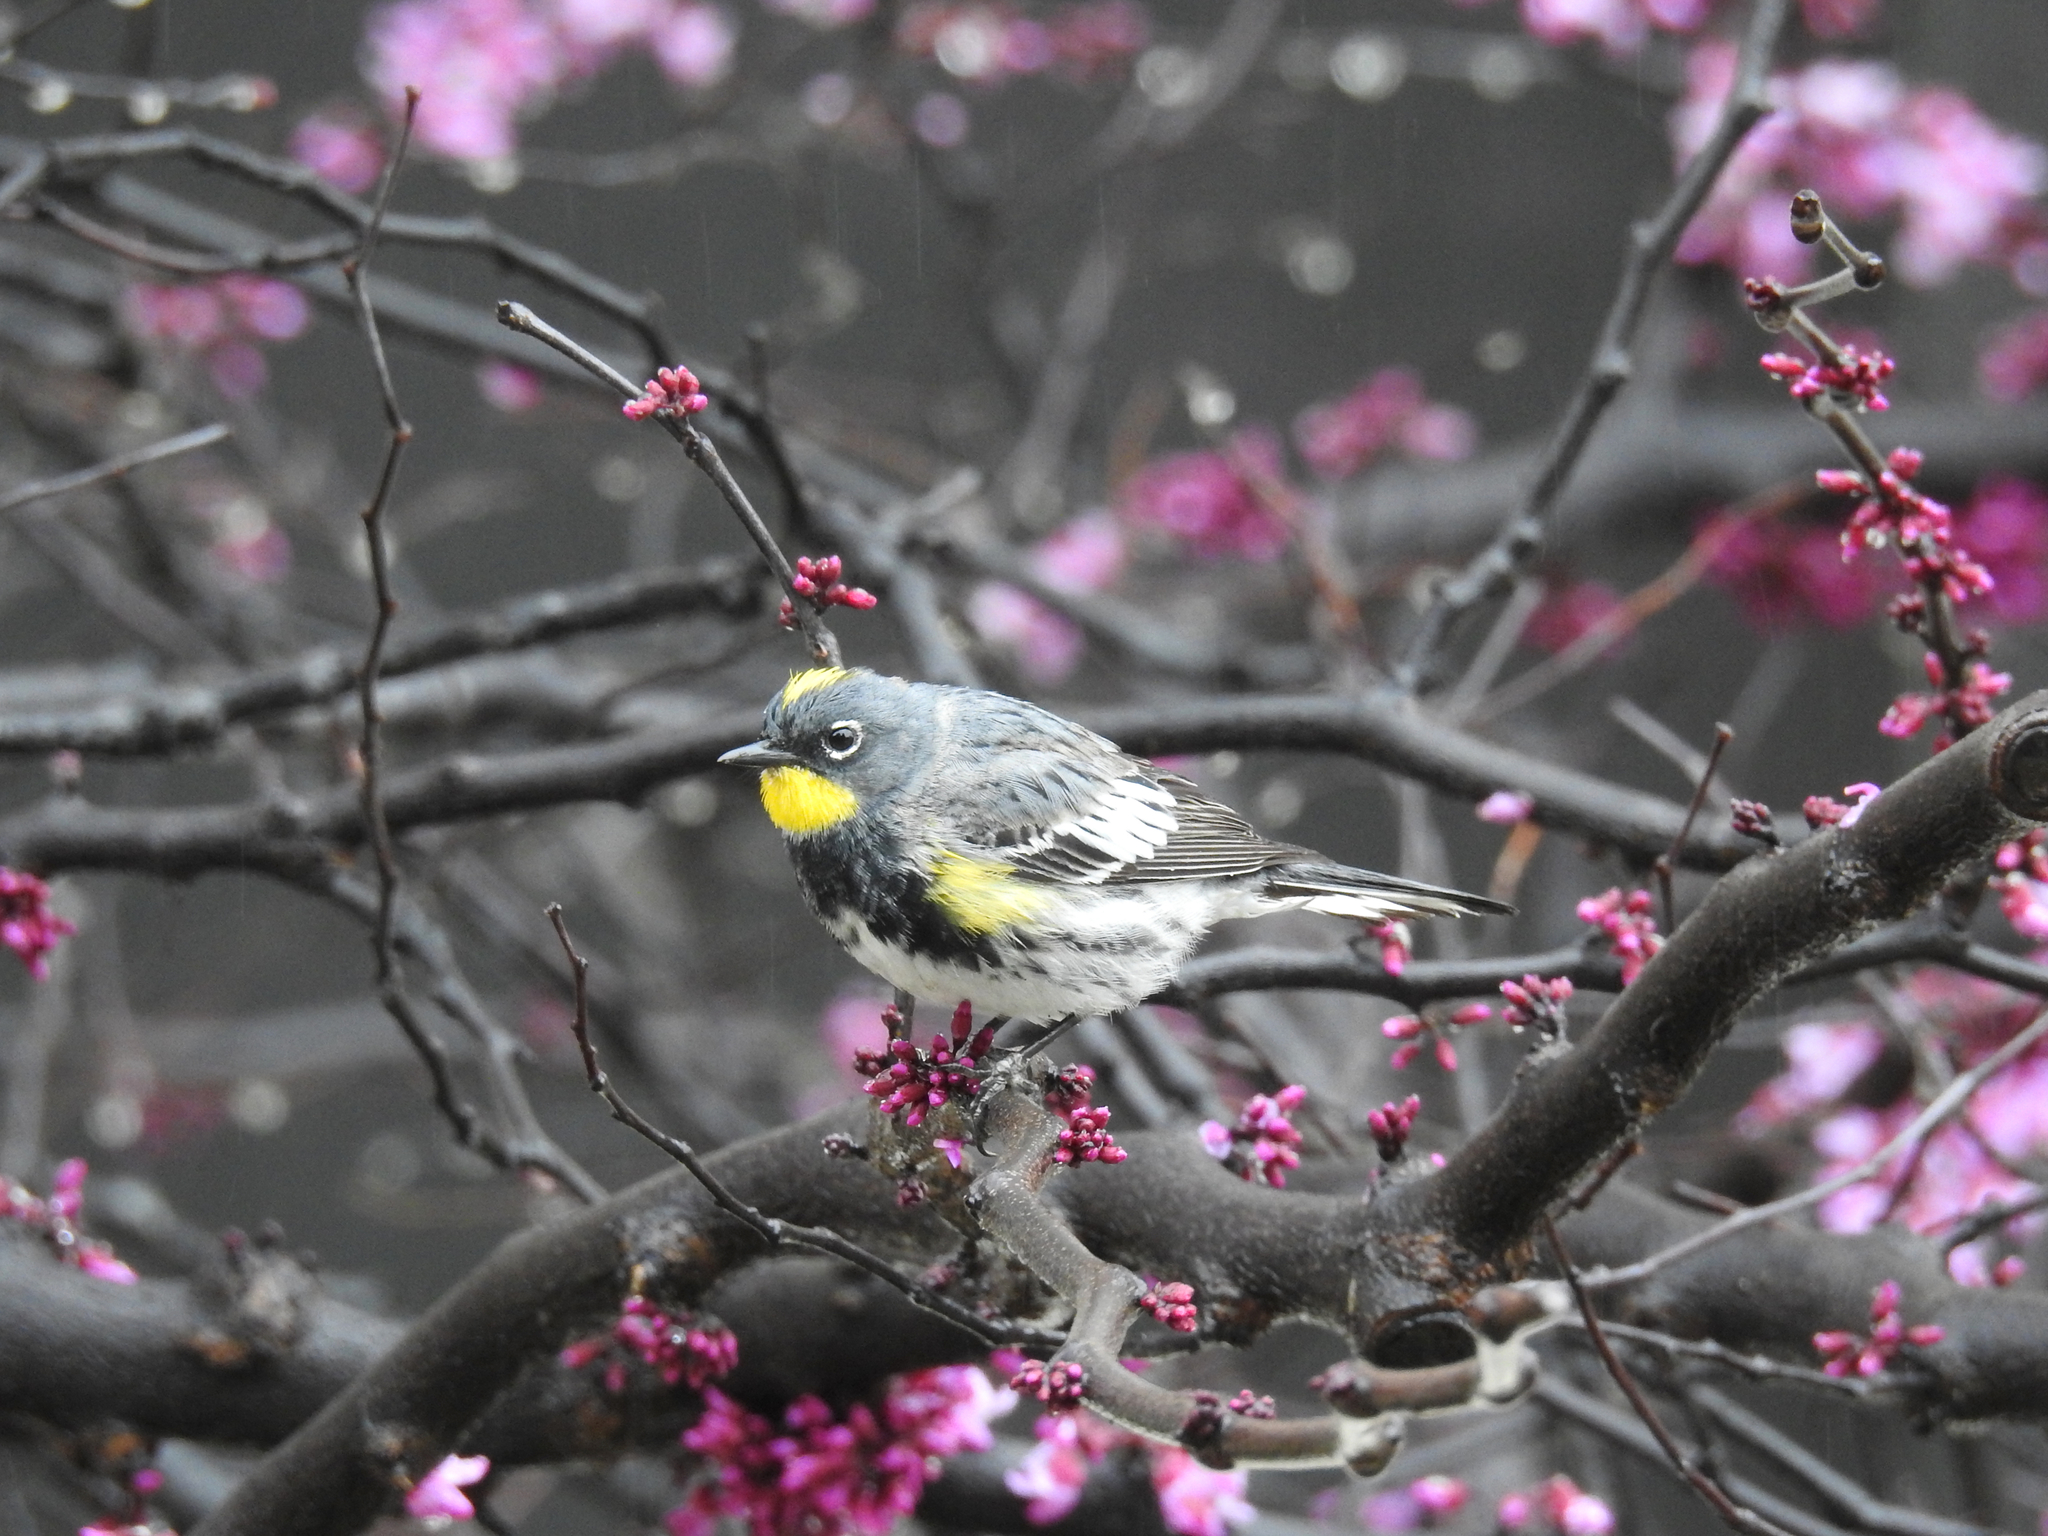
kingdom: Animalia
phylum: Chordata
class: Aves
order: Passeriformes
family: Parulidae
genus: Setophaga
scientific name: Setophaga coronata
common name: Myrtle warbler
